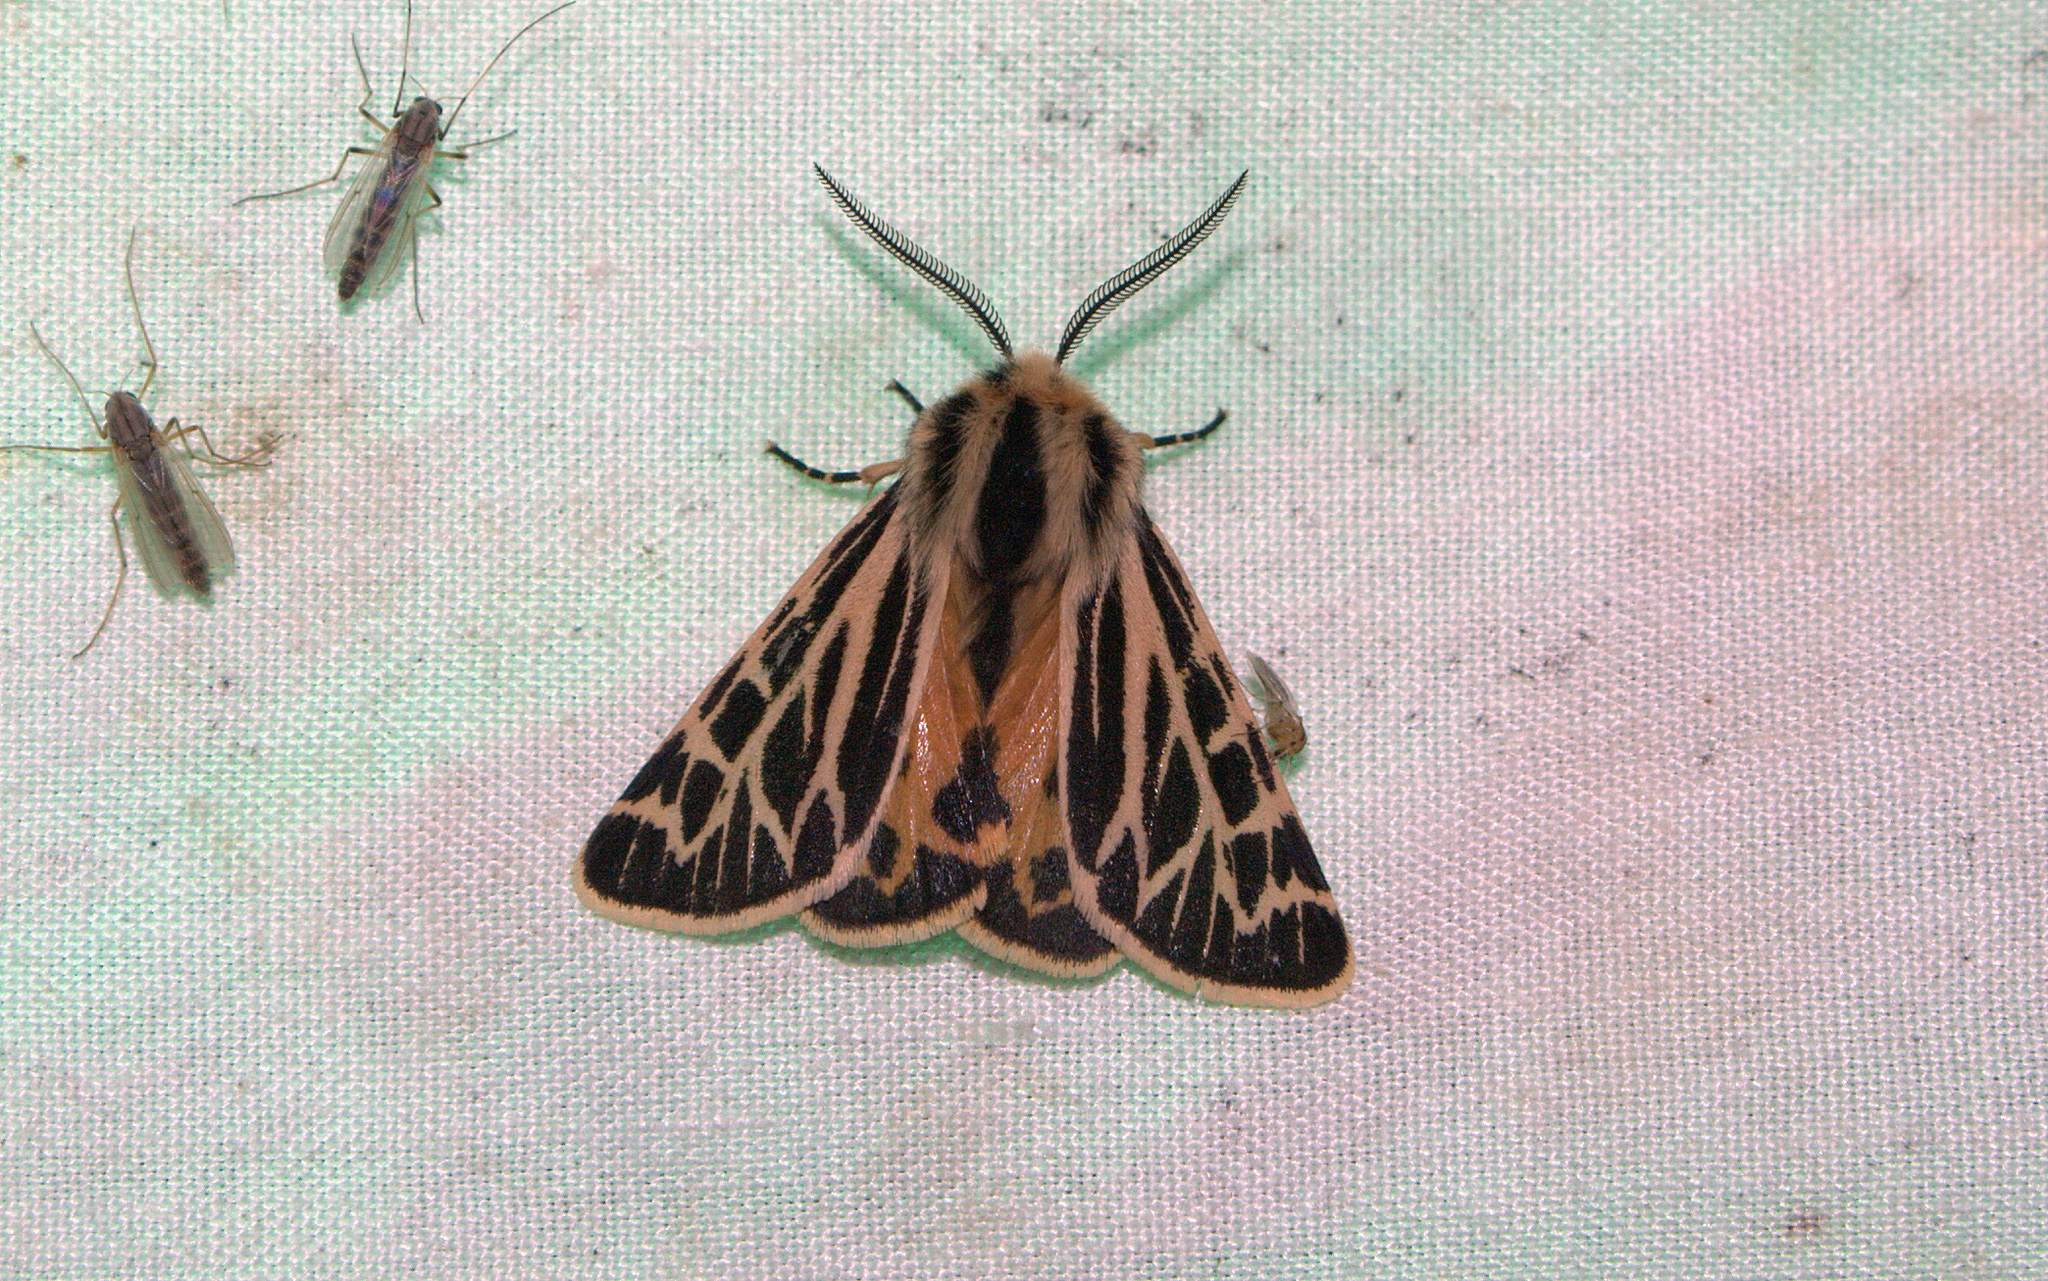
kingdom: Animalia
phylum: Arthropoda
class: Insecta
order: Lepidoptera
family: Erebidae
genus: Apantesis
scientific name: Apantesis obliterata
